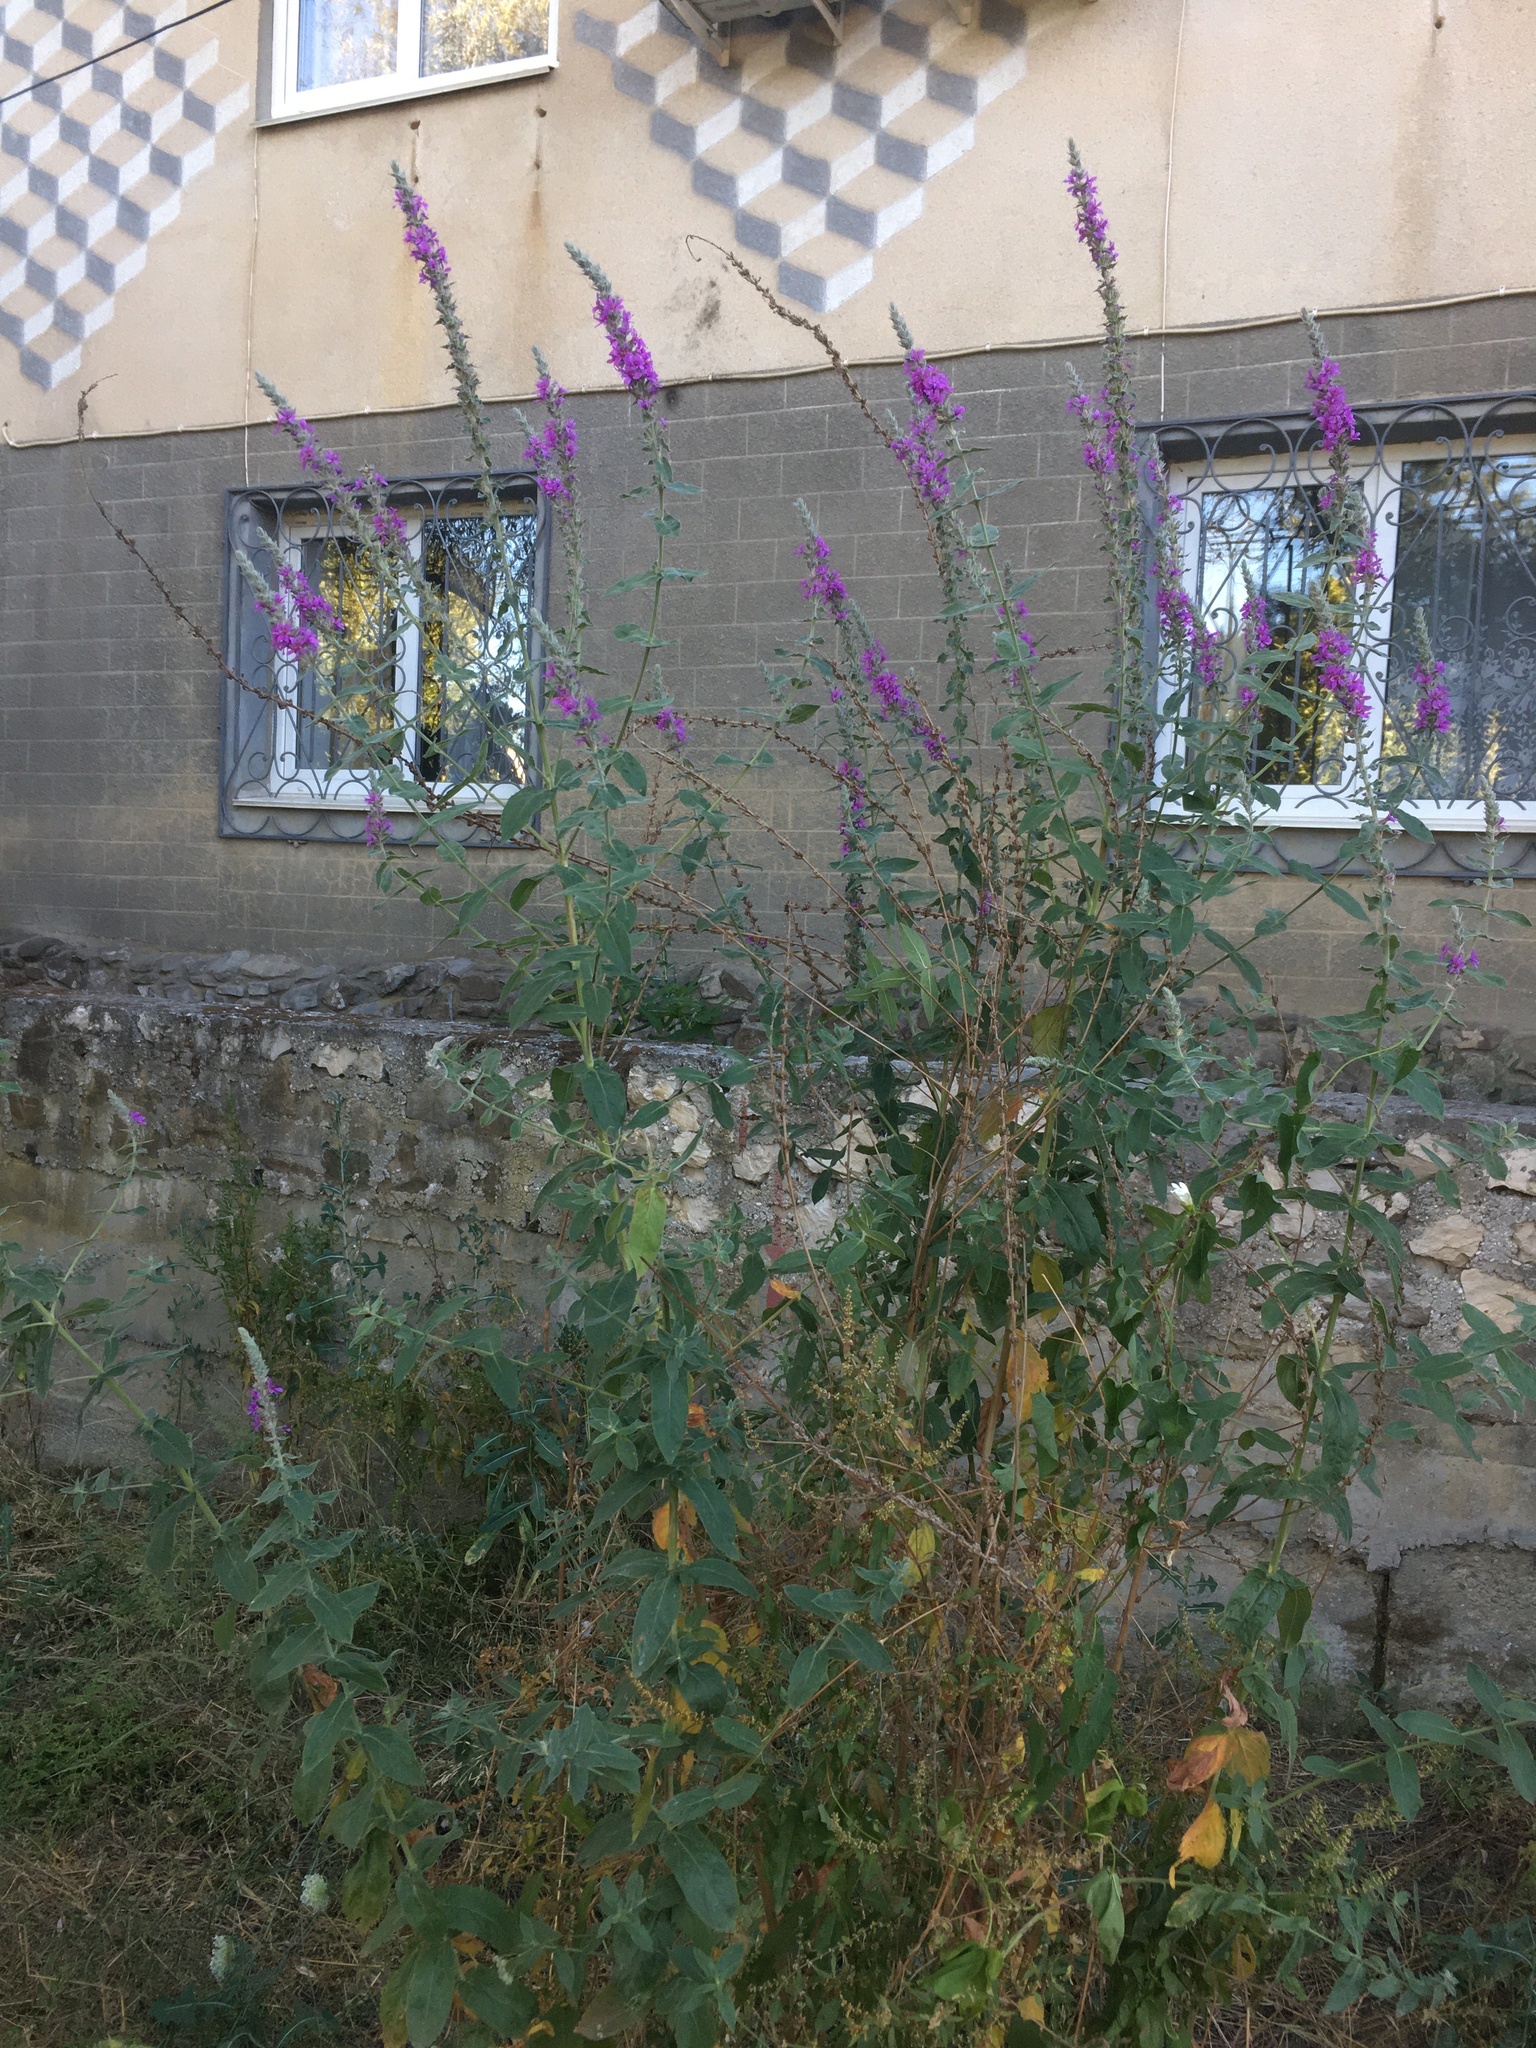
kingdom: Plantae
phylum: Tracheophyta
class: Magnoliopsida
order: Myrtales
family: Lythraceae
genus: Lythrum
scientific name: Lythrum salicaria
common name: Purple loosestrife
